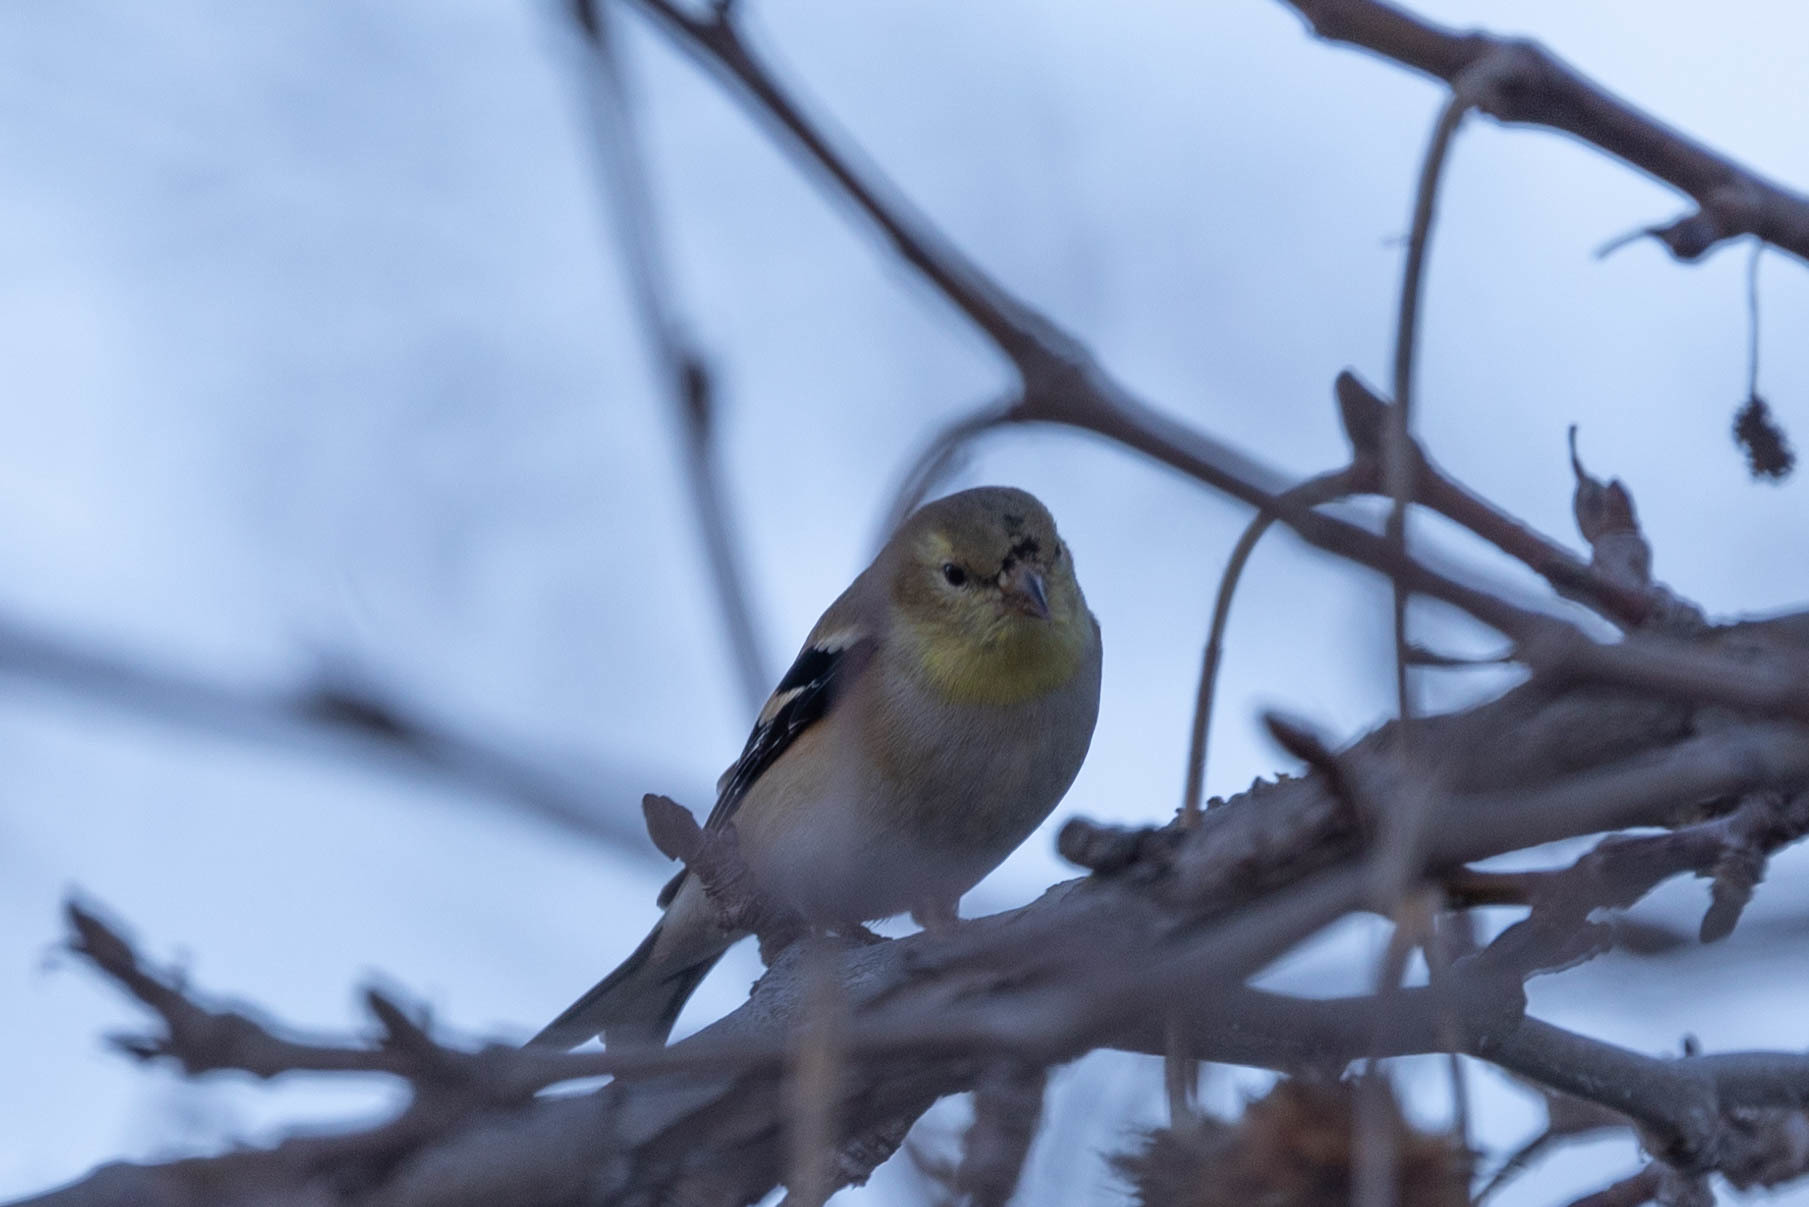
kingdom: Animalia
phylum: Chordata
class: Aves
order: Passeriformes
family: Fringillidae
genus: Spinus
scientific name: Spinus tristis
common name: American goldfinch
